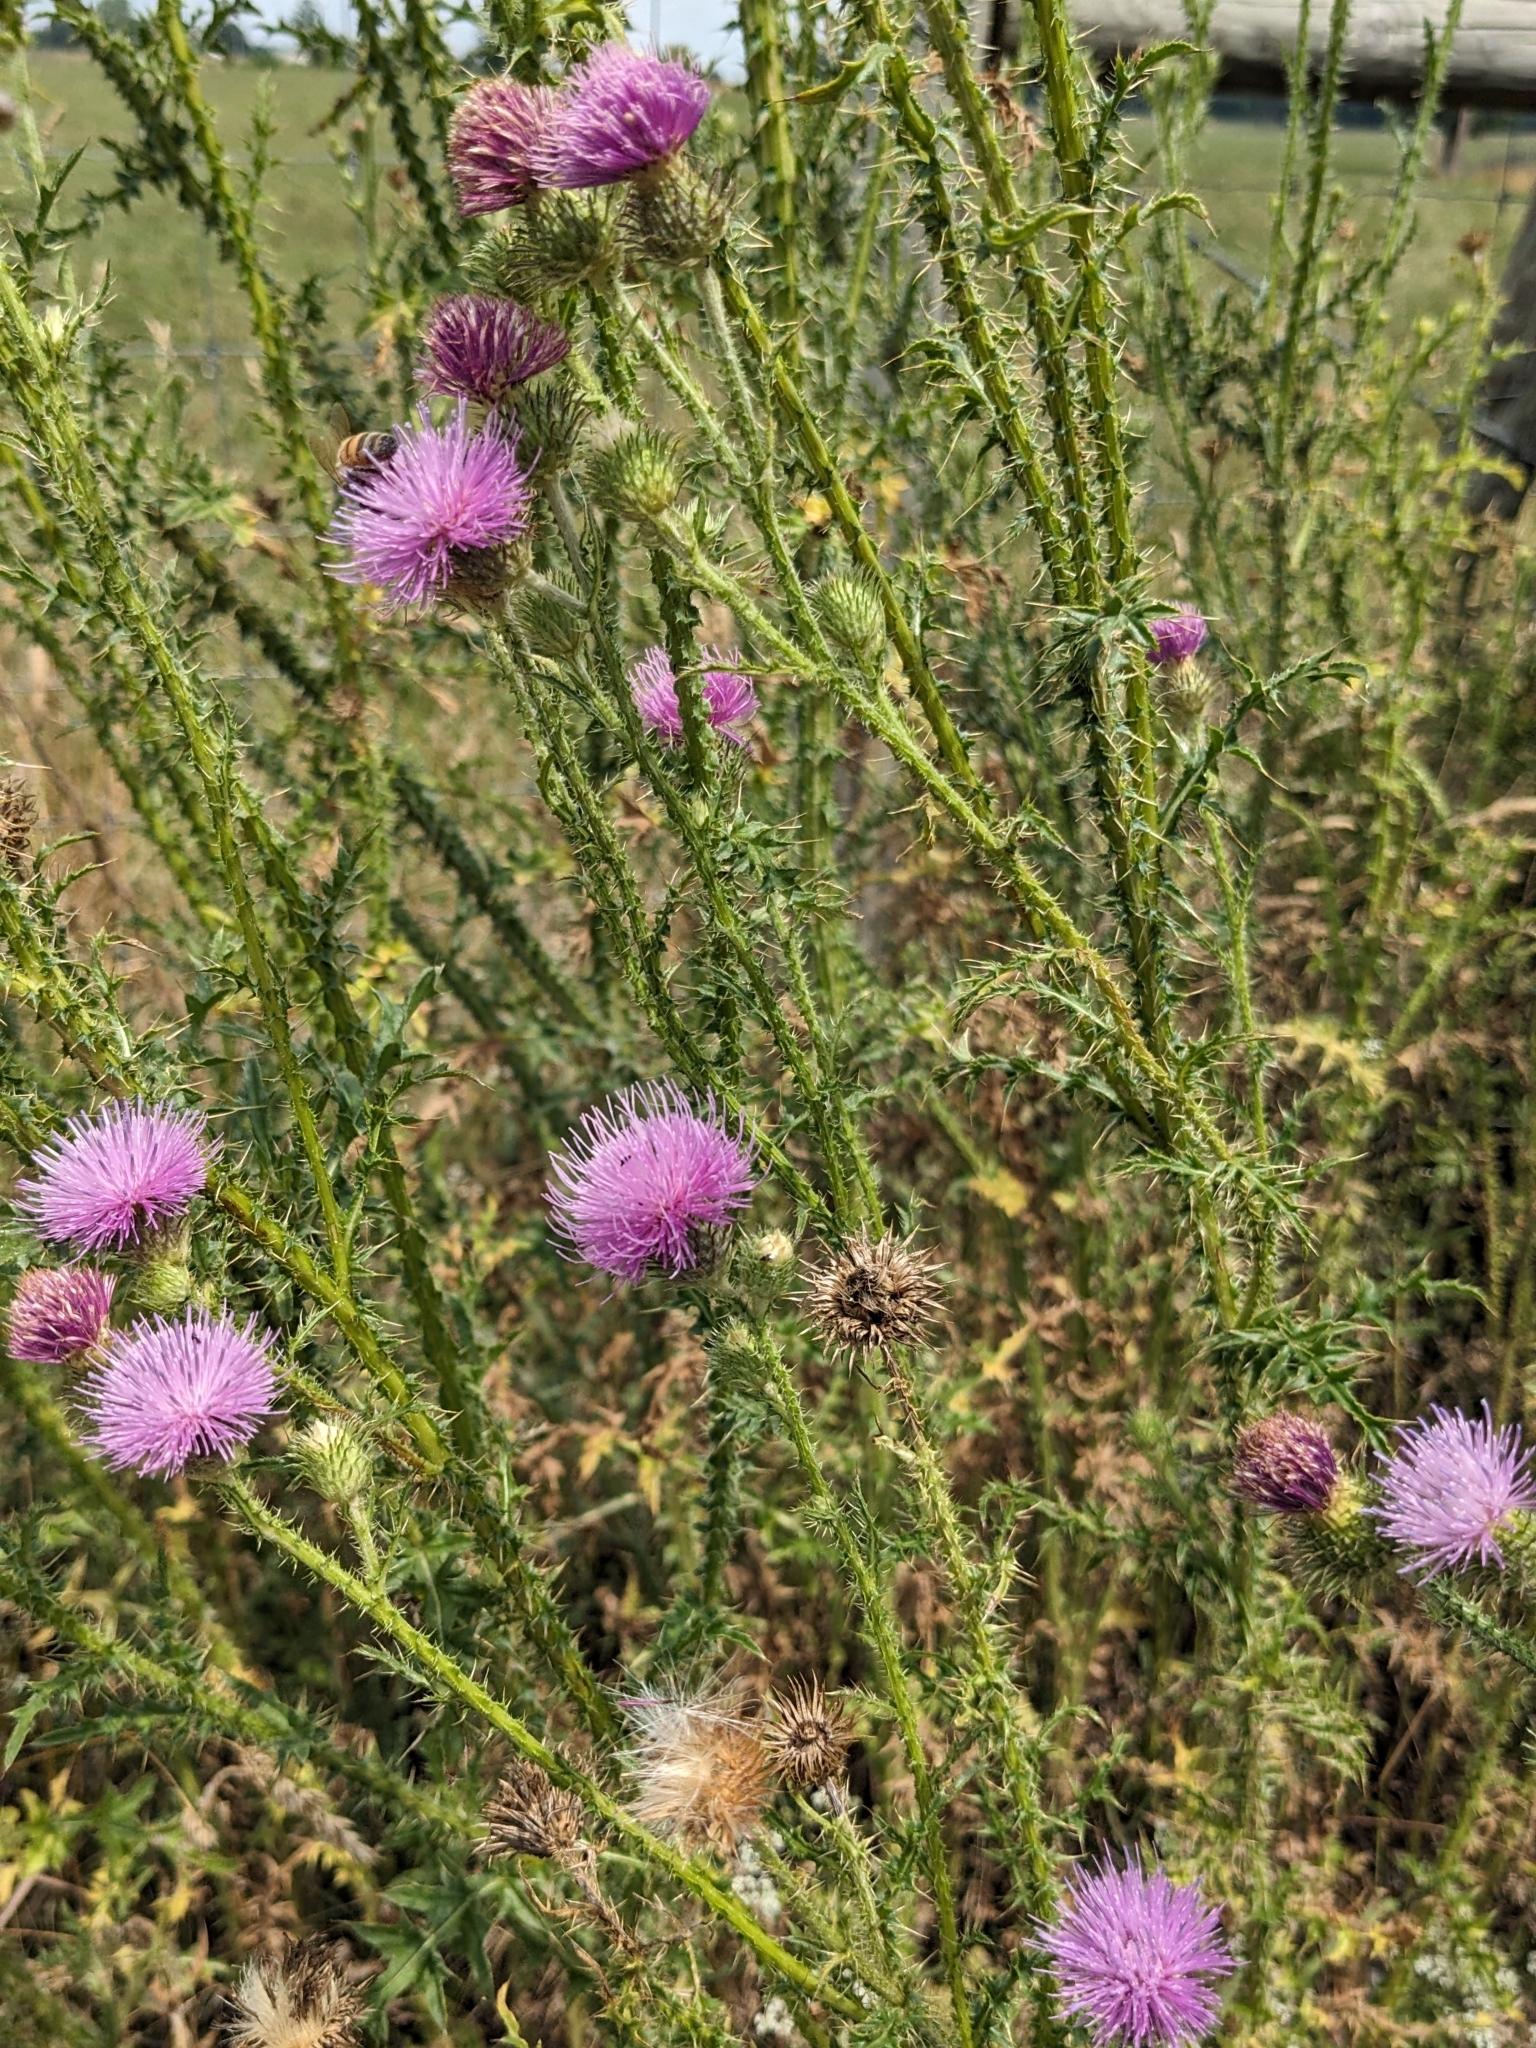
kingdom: Plantae
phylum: Tracheophyta
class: Magnoliopsida
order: Asterales
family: Asteraceae
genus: Carduus
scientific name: Carduus acanthoides
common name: Plumeless thistle
